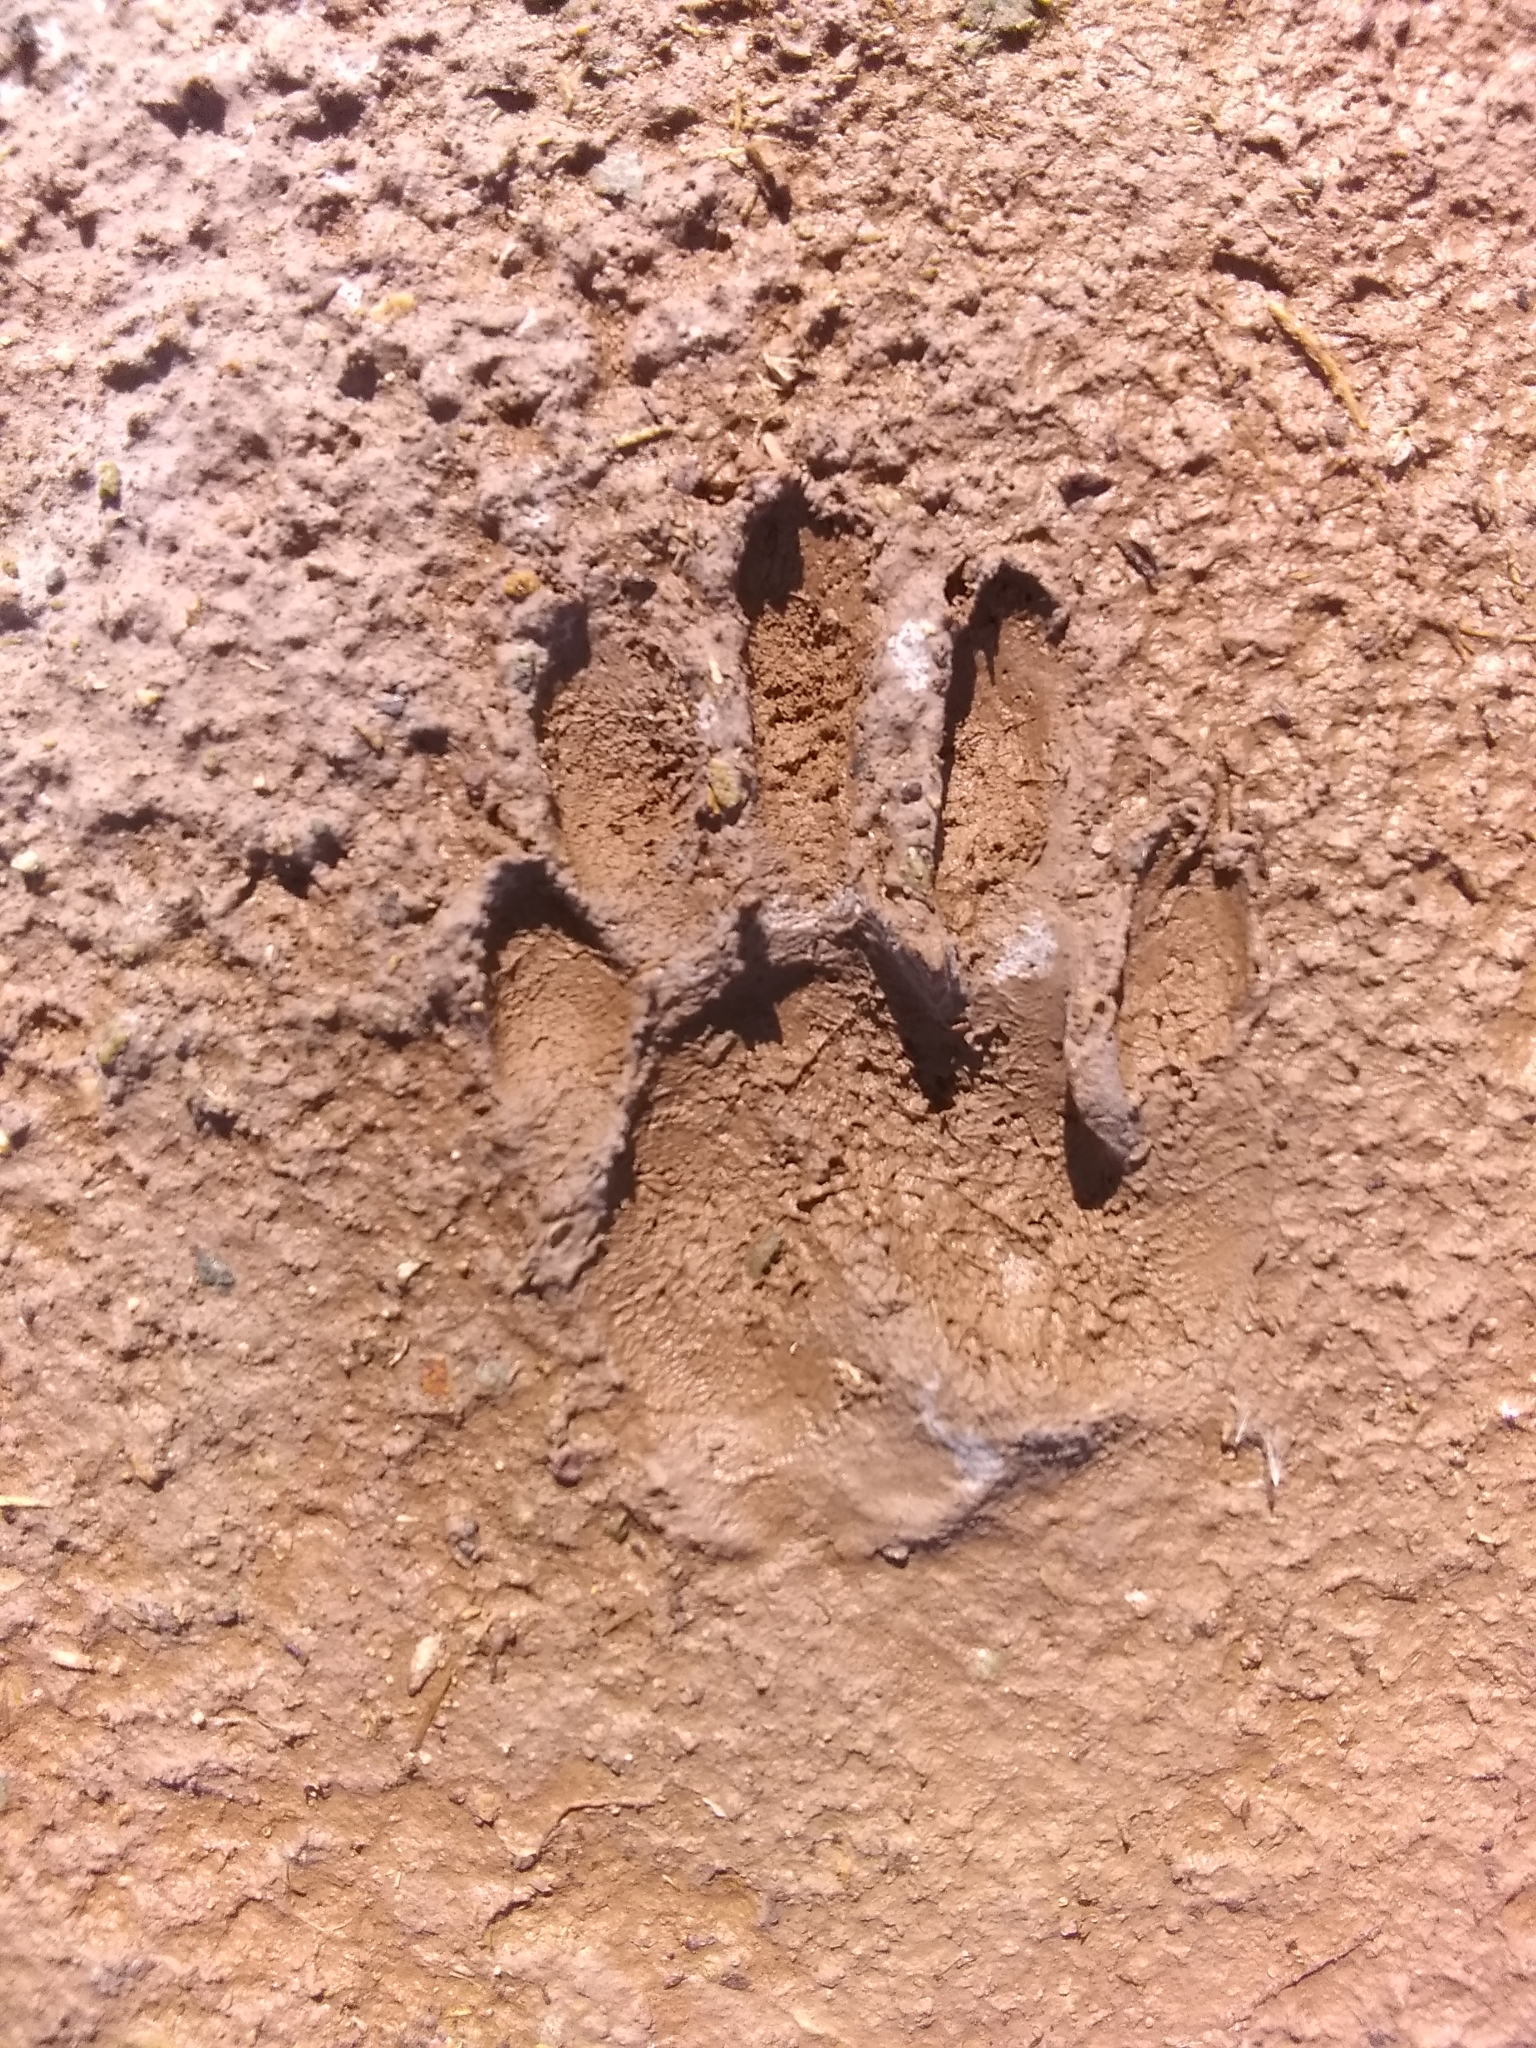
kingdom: Animalia
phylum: Chordata
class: Mammalia
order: Carnivora
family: Procyonidae
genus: Procyon
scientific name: Procyon lotor
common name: Raccoon
